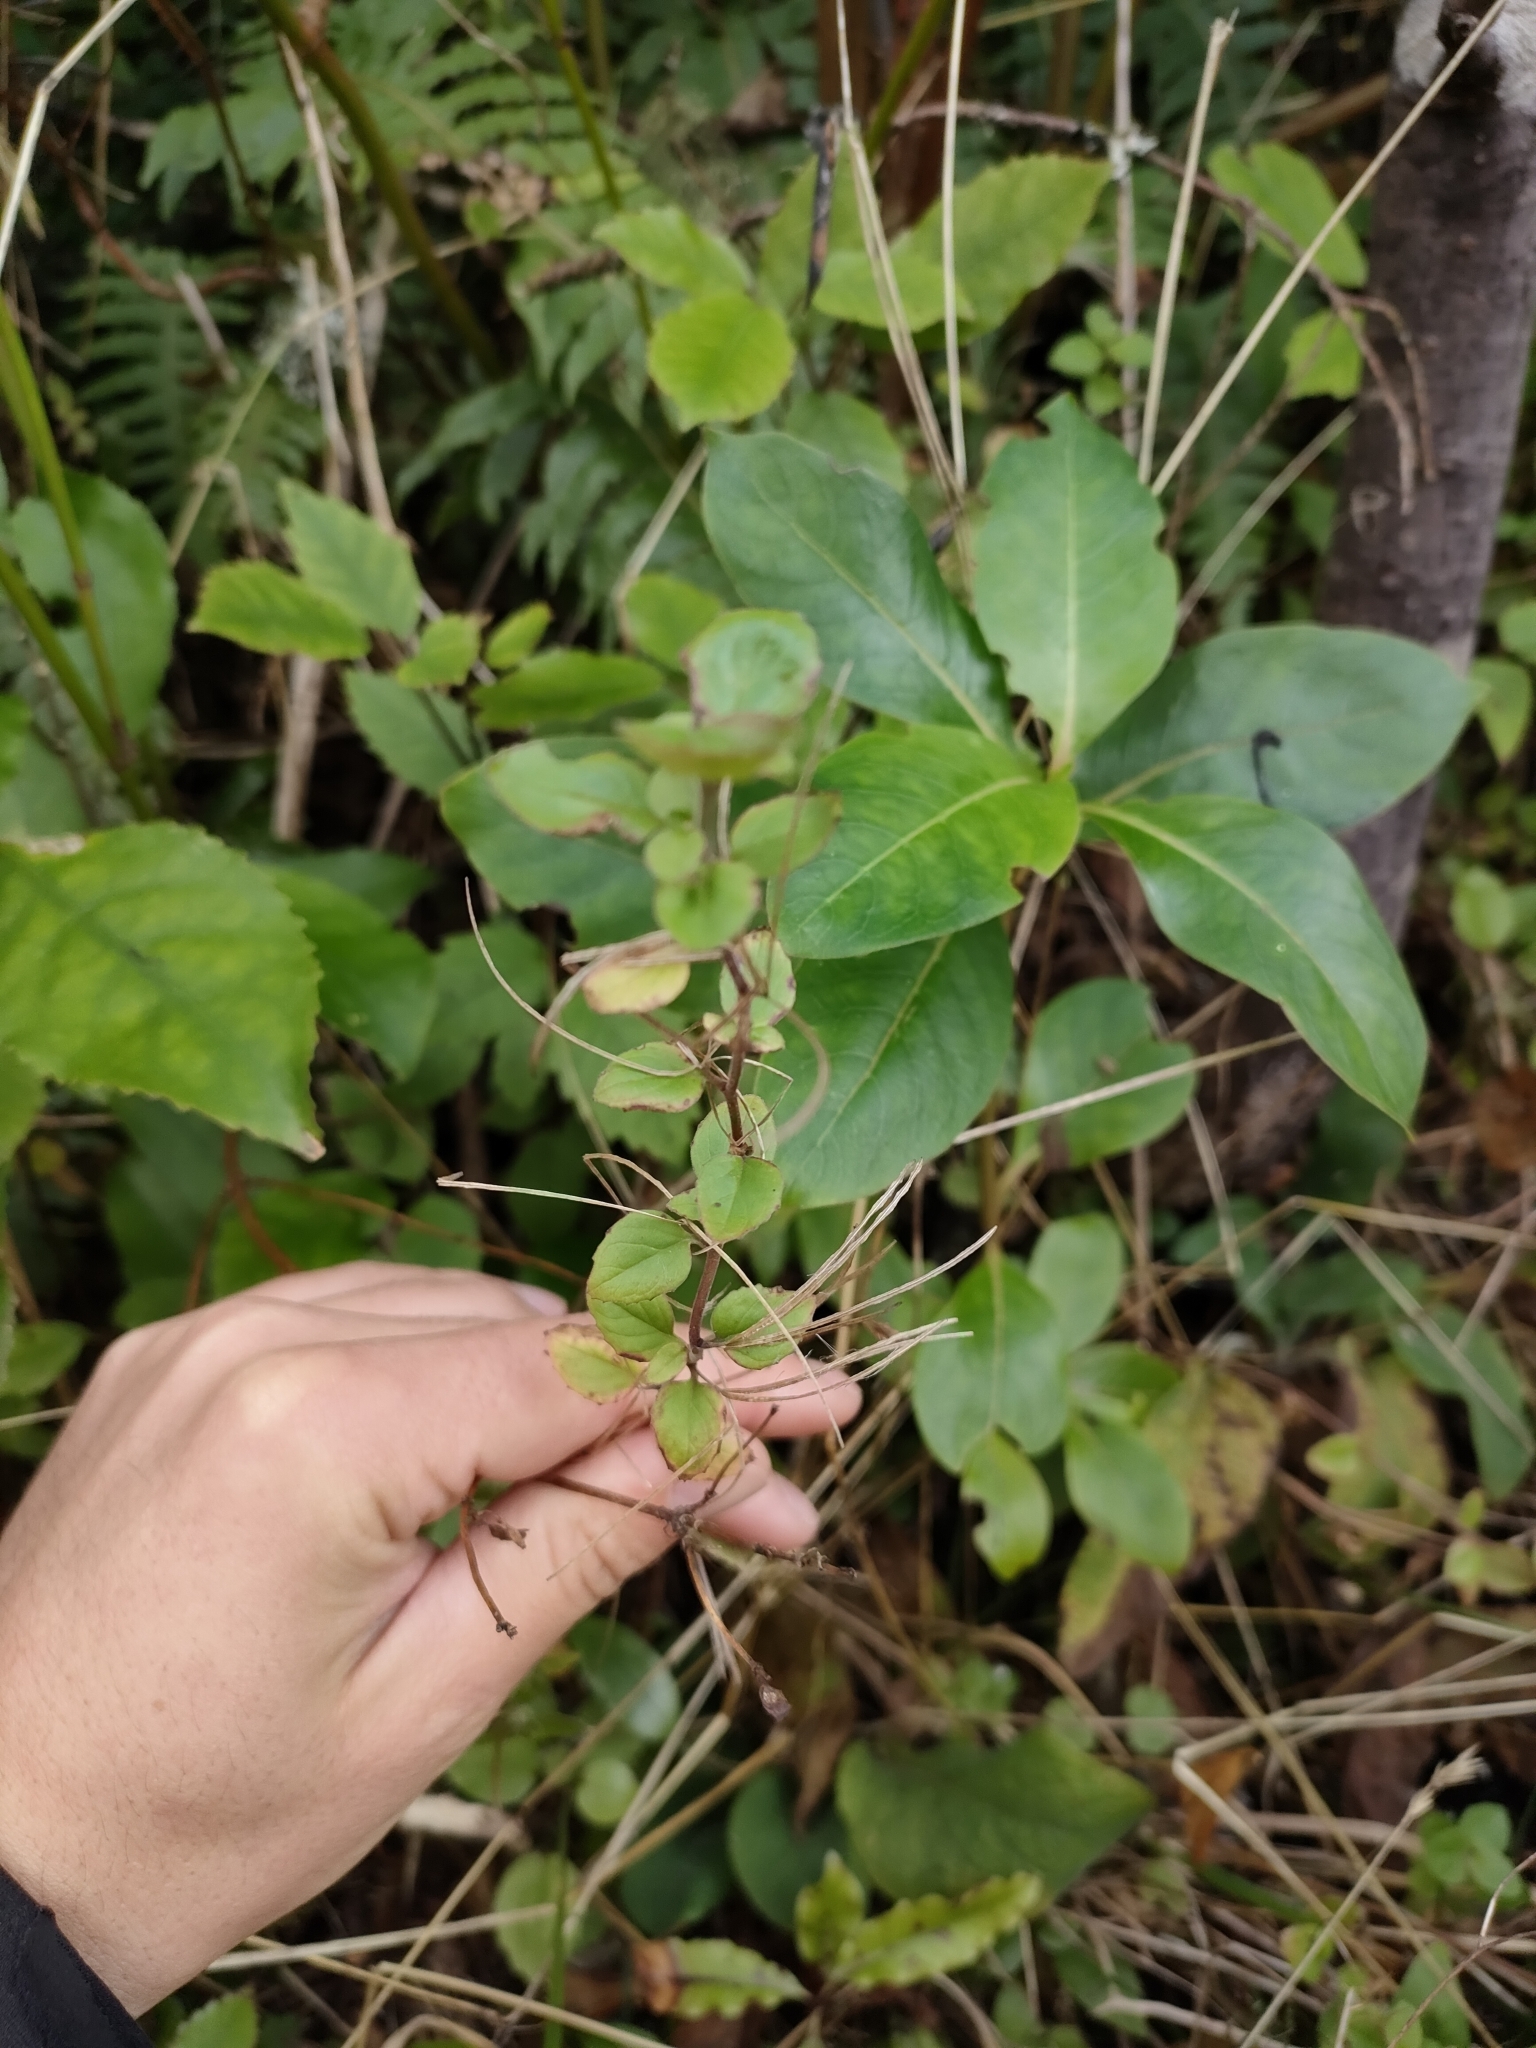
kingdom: Plantae
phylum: Tracheophyta
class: Magnoliopsida
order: Myrtales
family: Onagraceae
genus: Epilobium
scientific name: Epilobium pubens
